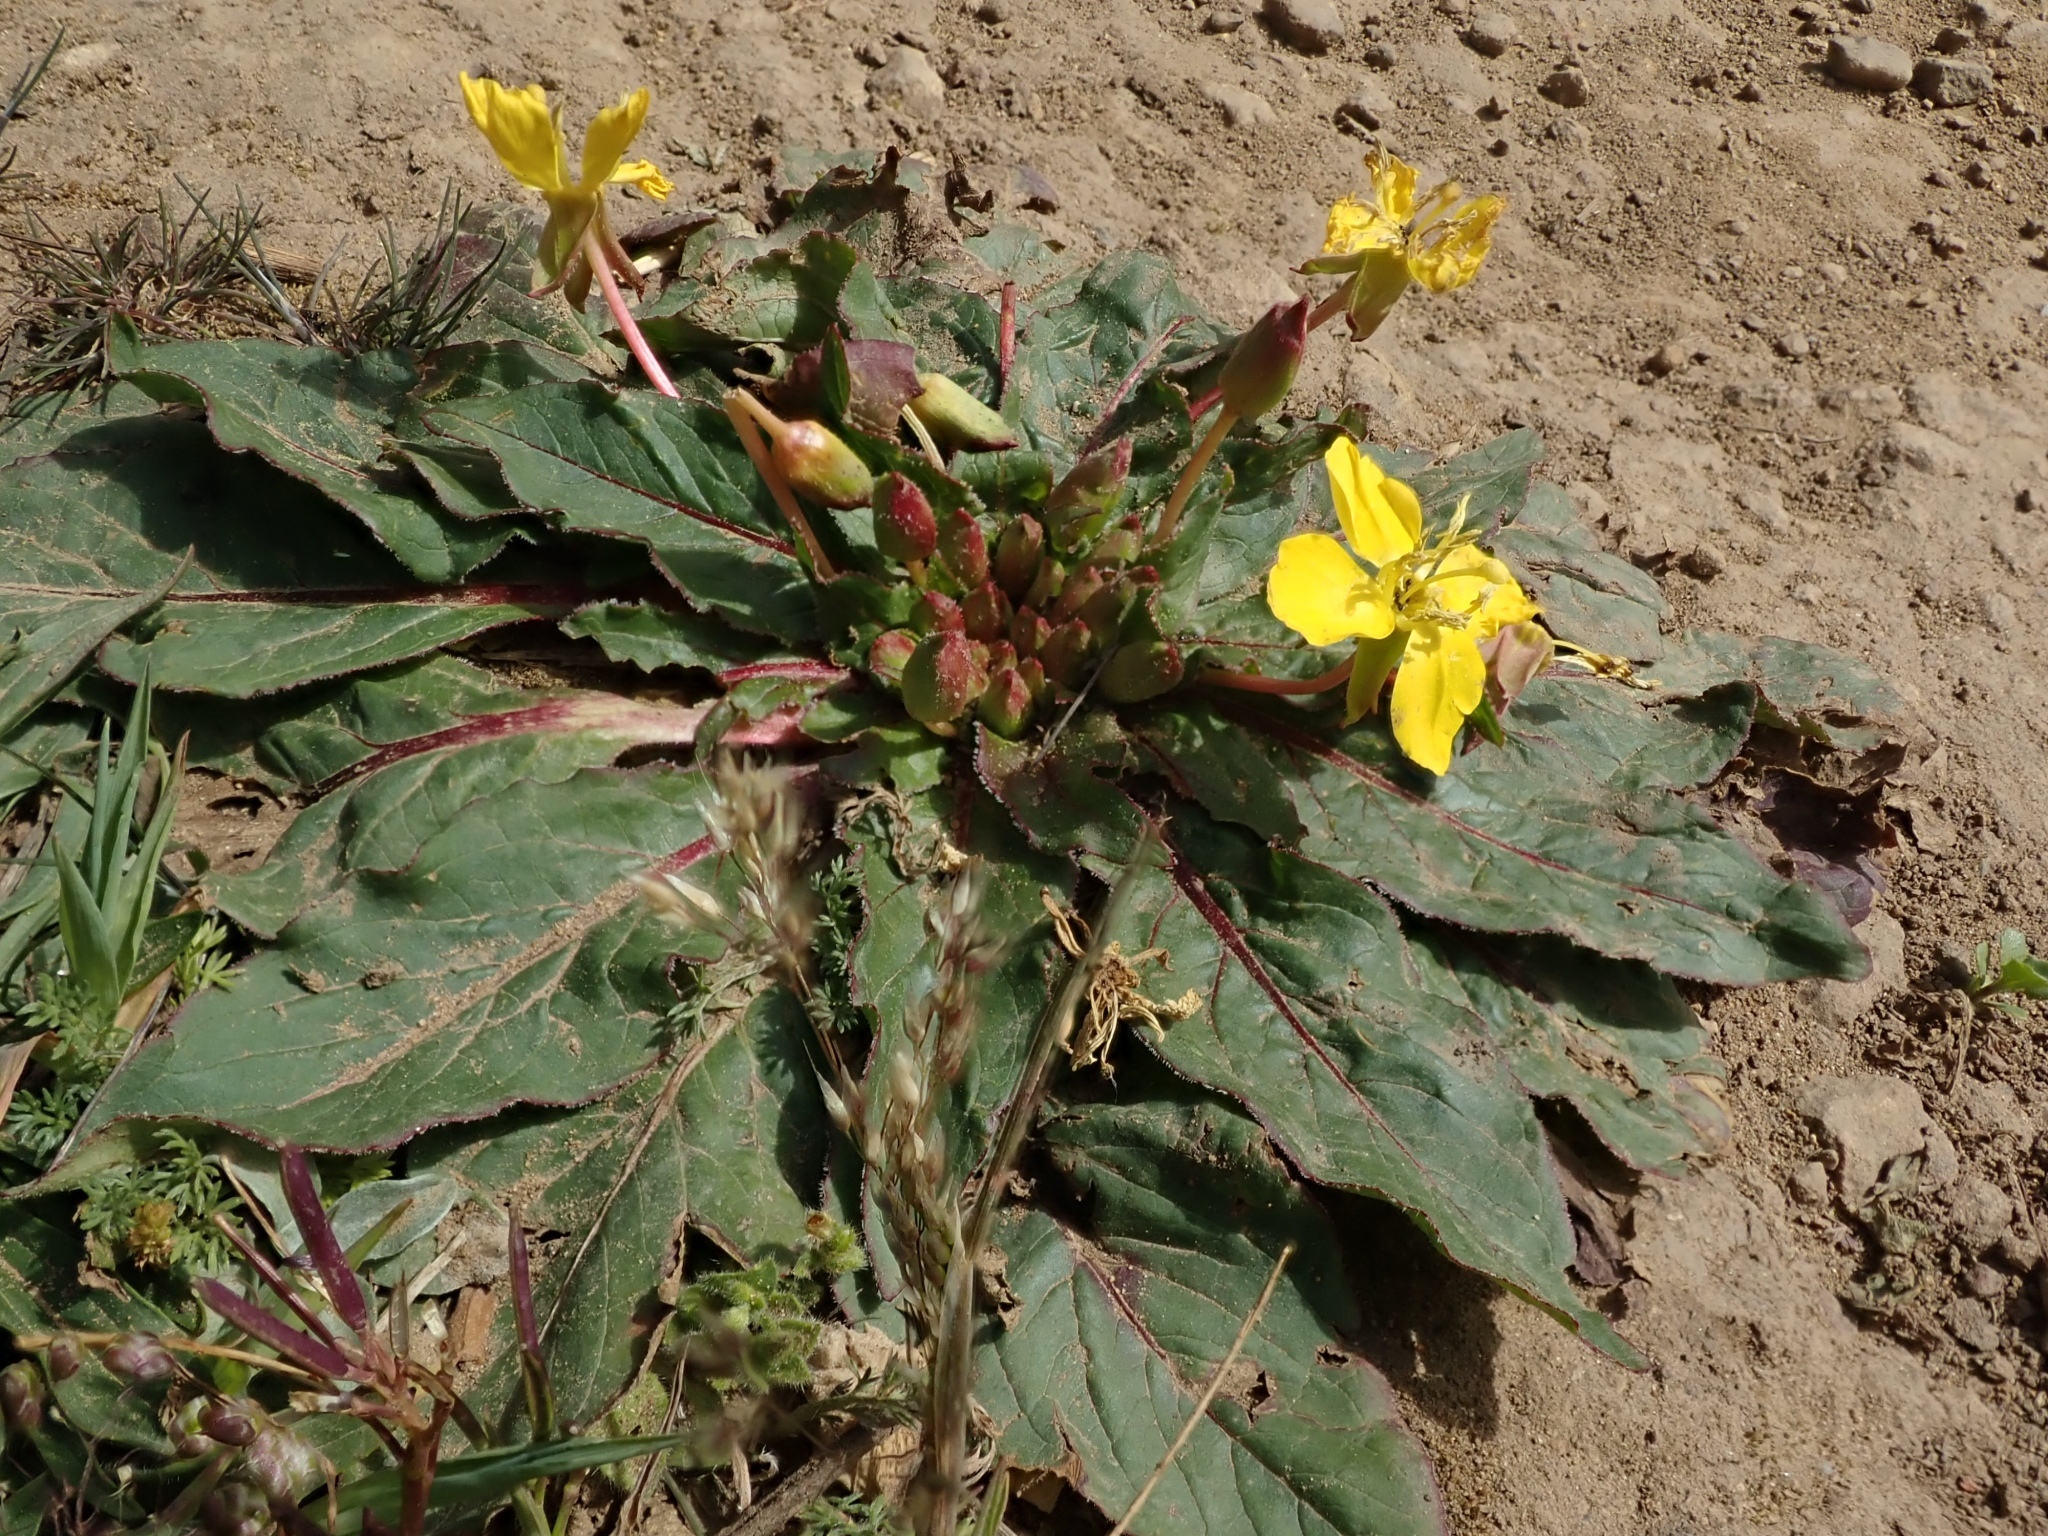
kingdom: Plantae
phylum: Tracheophyta
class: Magnoliopsida
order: Myrtales
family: Onagraceae
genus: Taraxia
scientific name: Taraxia ovata
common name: Goldeneggs
